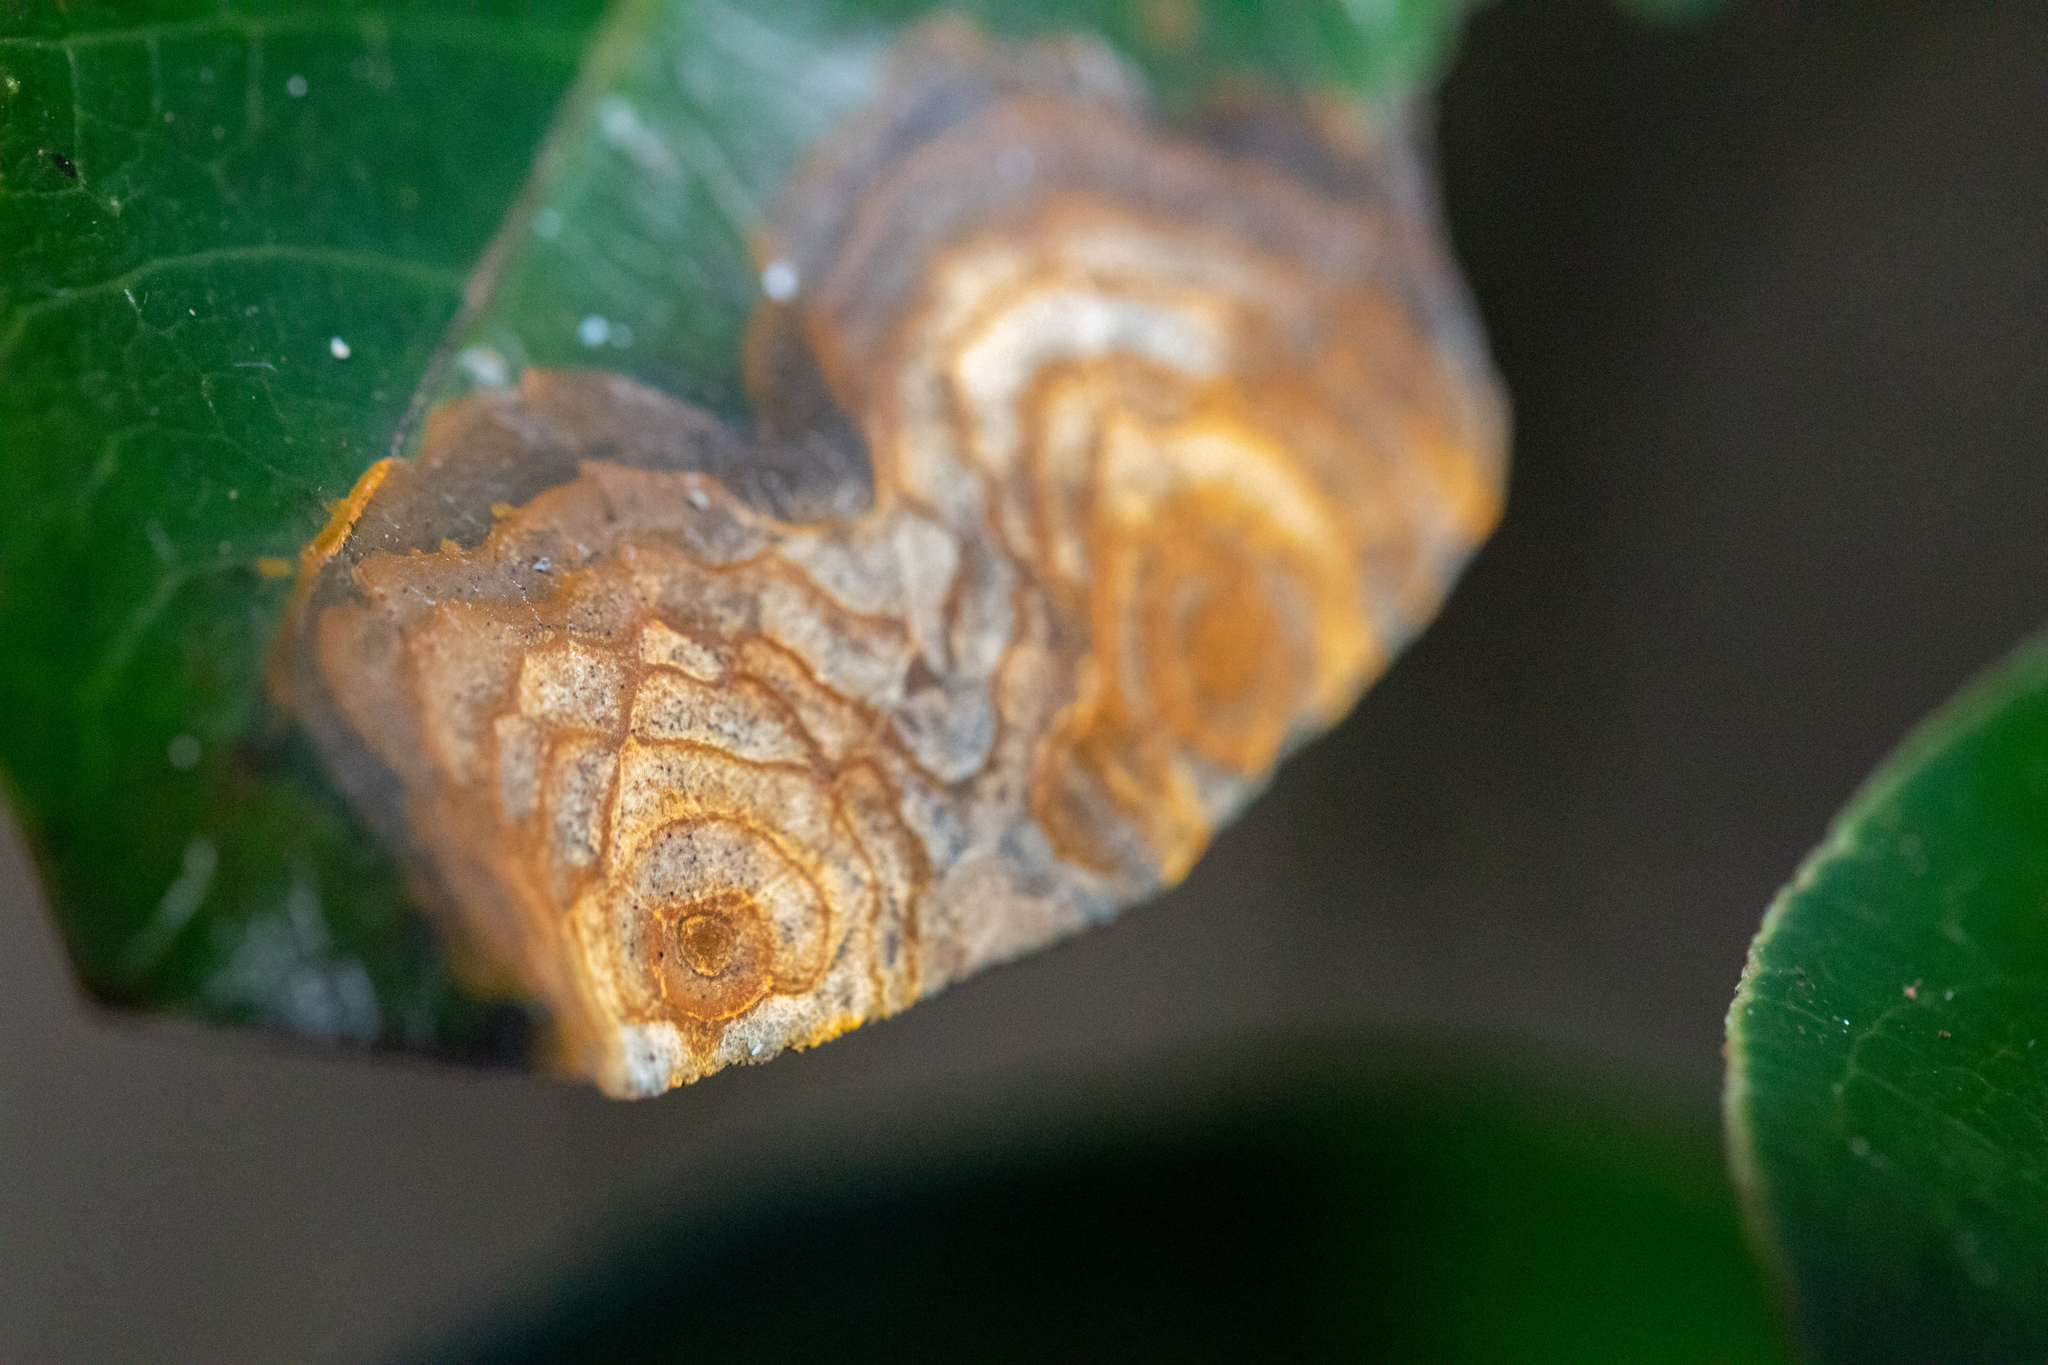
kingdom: Fungi
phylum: Ascomycota
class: Dothideomycetes
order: Mycosphaerellales
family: Mycosphaerellaceae
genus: Pseudocercospora
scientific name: Pseudocercospora coprosmae
